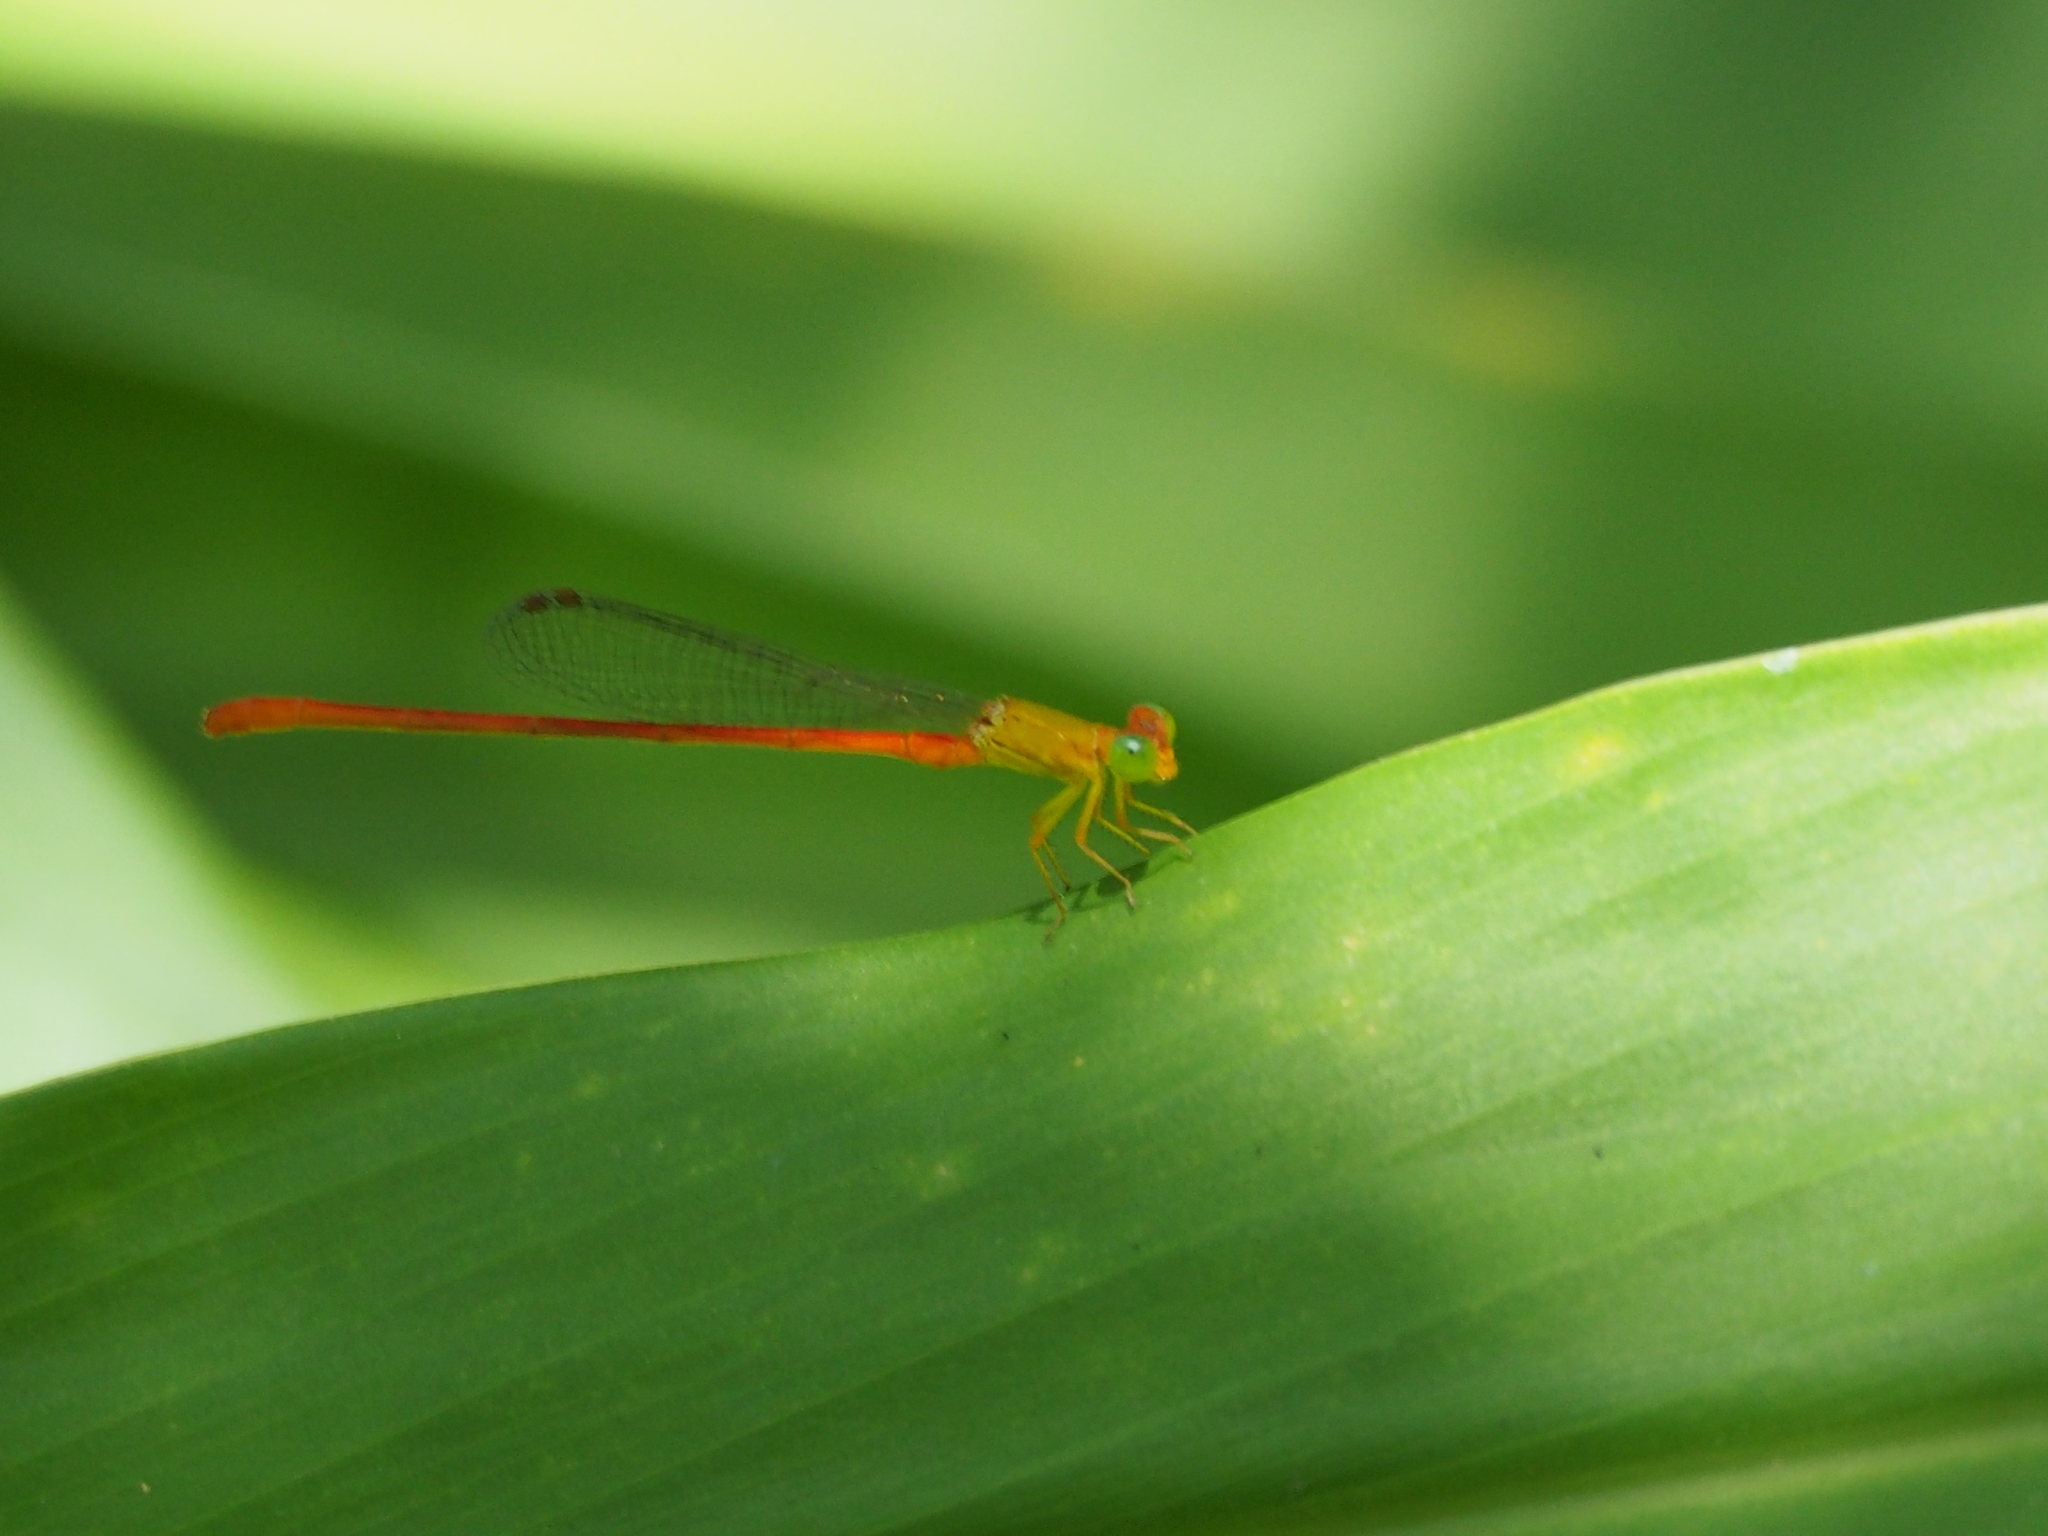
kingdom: Animalia
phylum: Arthropoda
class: Insecta
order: Odonata
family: Coenagrionidae
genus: Ceriagrion
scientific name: Ceriagrion auranticum
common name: Orange-tailed sprite
